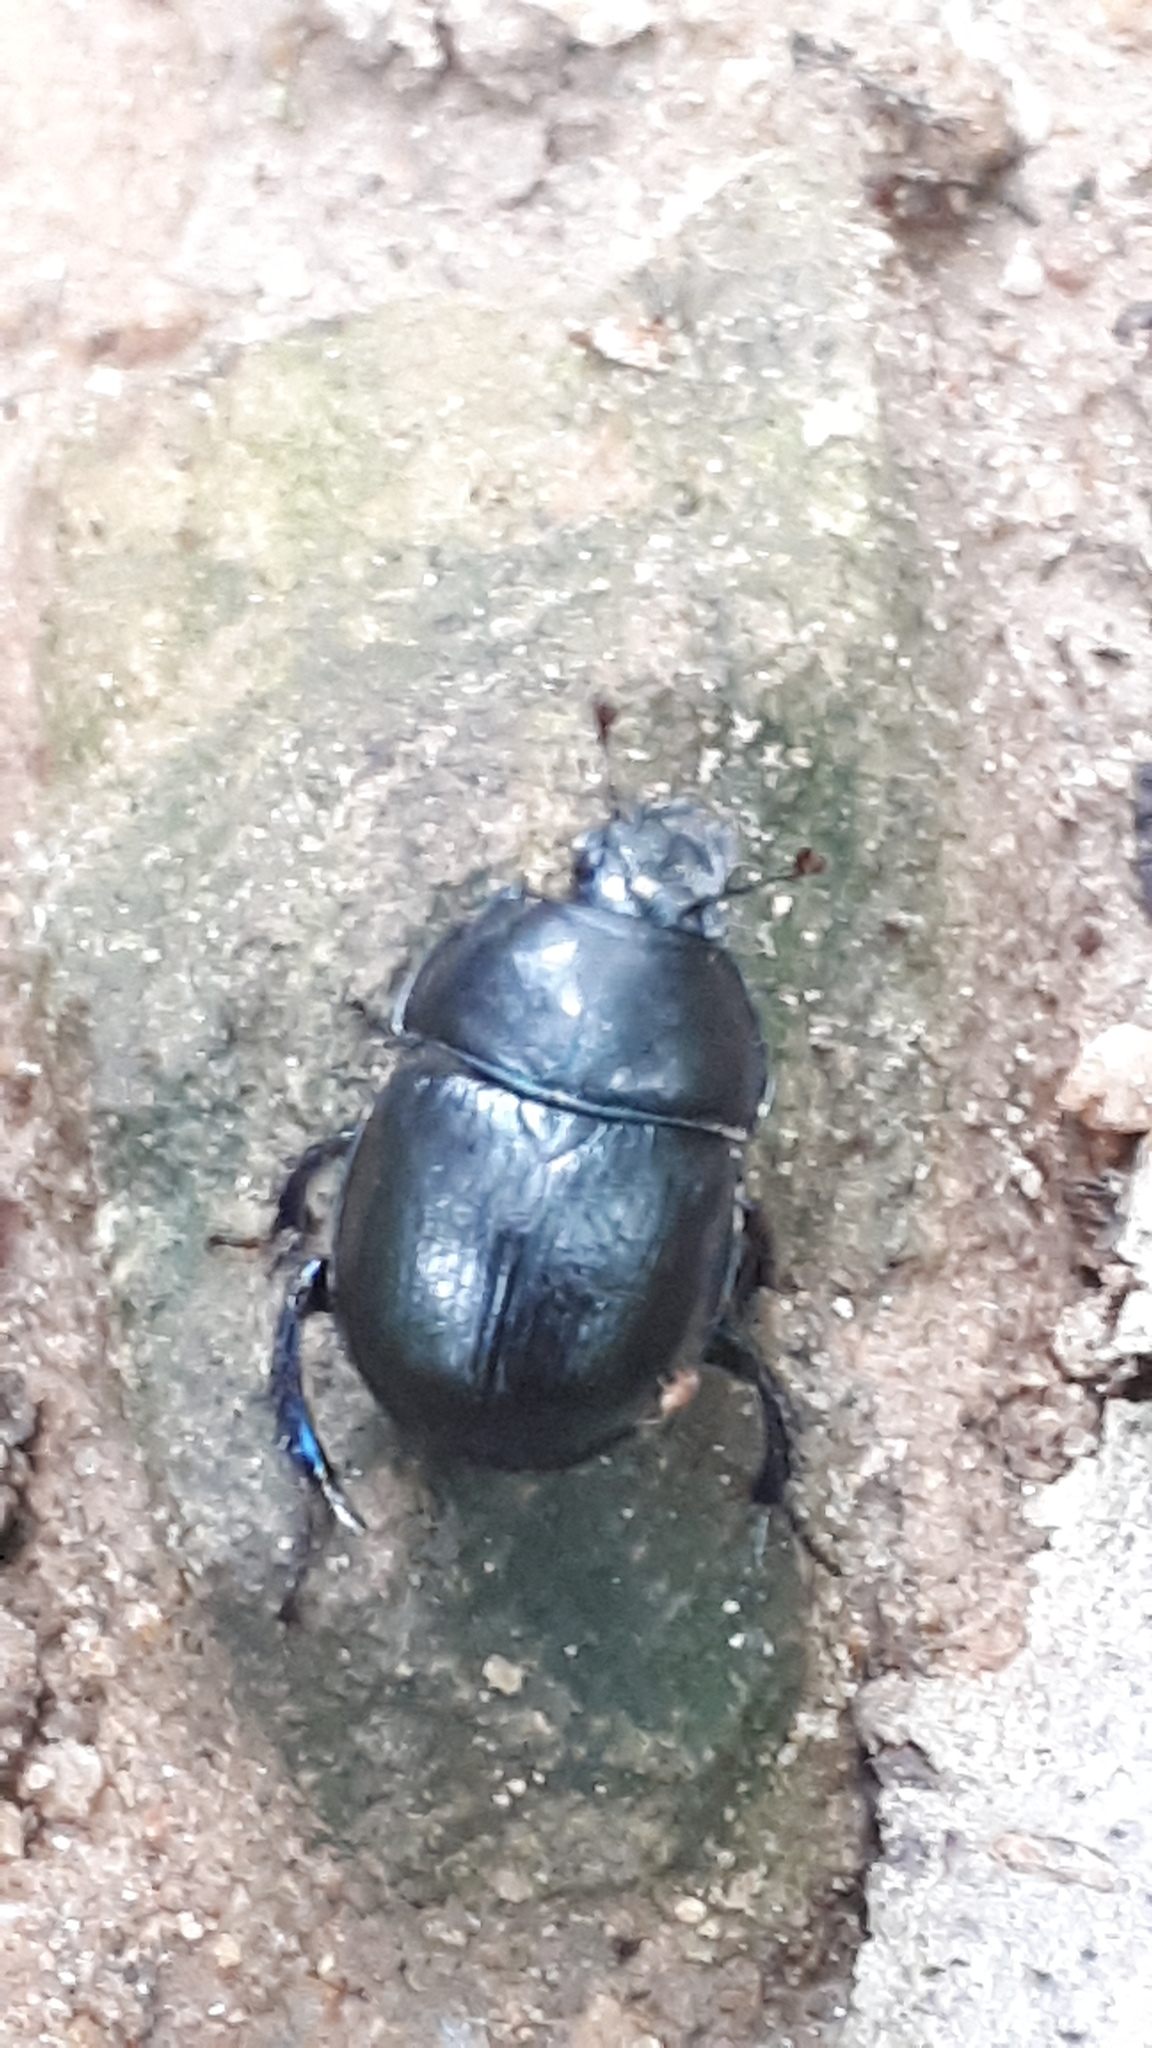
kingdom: Animalia
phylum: Arthropoda
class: Insecta
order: Coleoptera
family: Geotrupidae
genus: Anoplotrupes
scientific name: Anoplotrupes stercorosus
